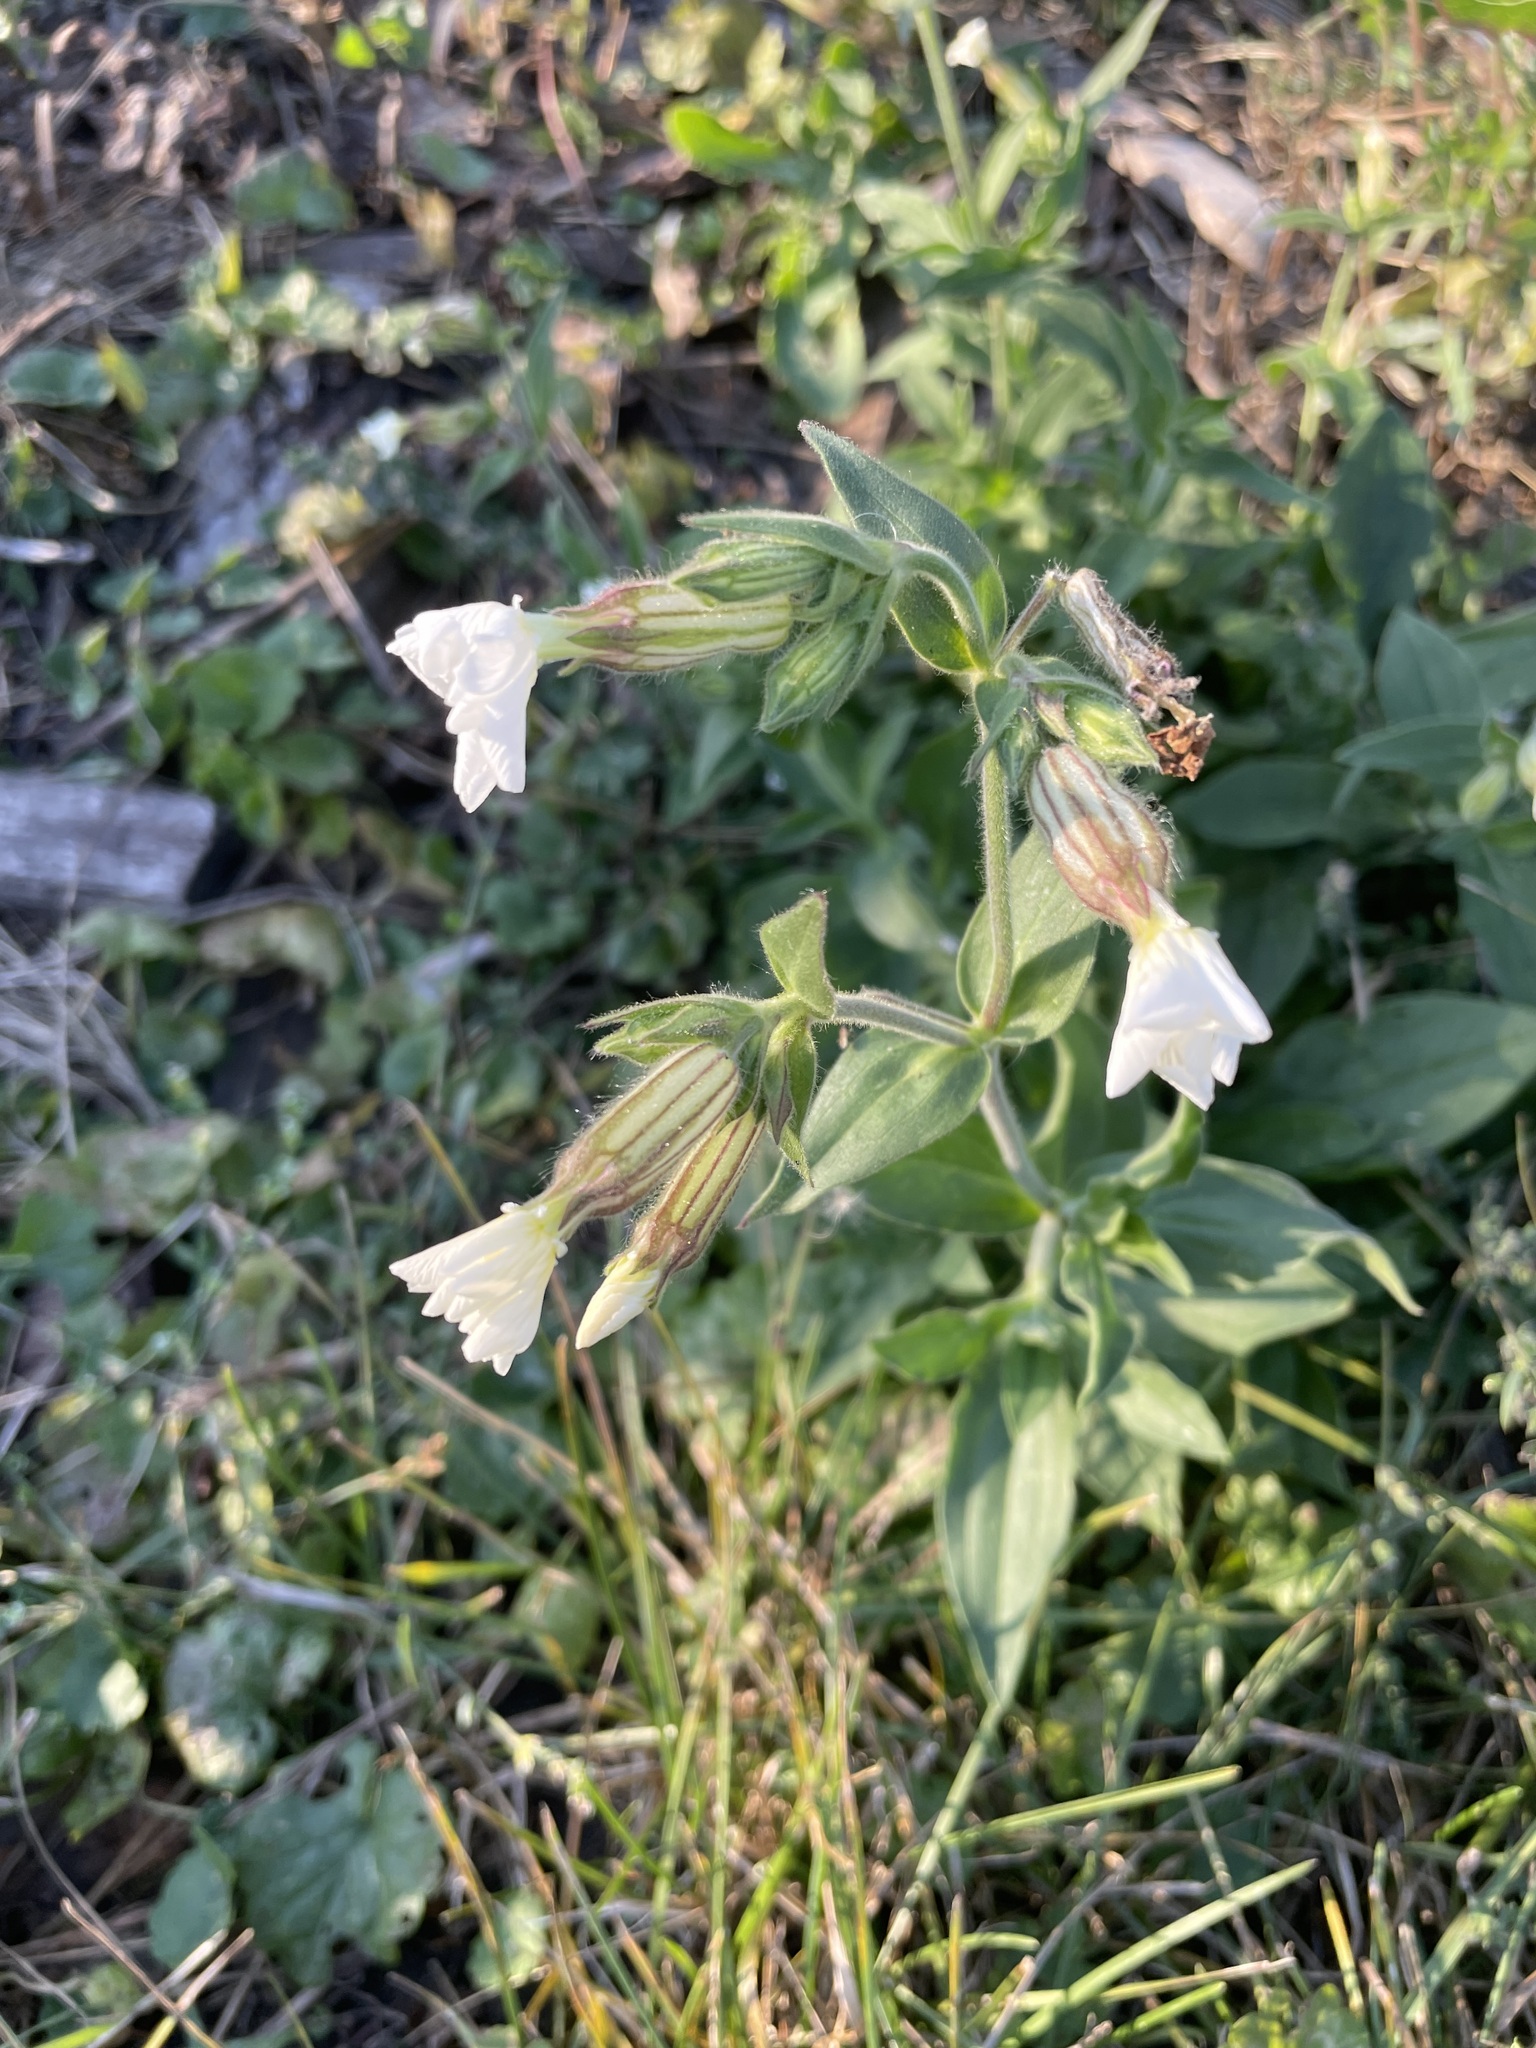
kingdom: Plantae
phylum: Tracheophyta
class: Magnoliopsida
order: Caryophyllales
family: Caryophyllaceae
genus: Silene
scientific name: Silene latifolia
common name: White campion
